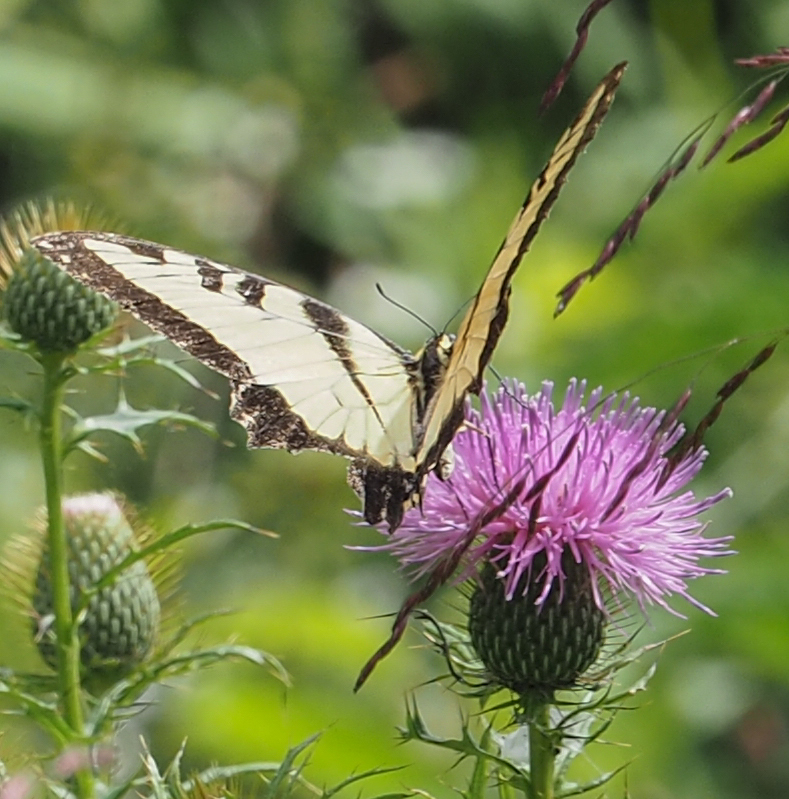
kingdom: Animalia
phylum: Arthropoda
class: Insecta
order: Lepidoptera
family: Papilionidae
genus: Papilio
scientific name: Papilio glaucus
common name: Tiger swallowtail
